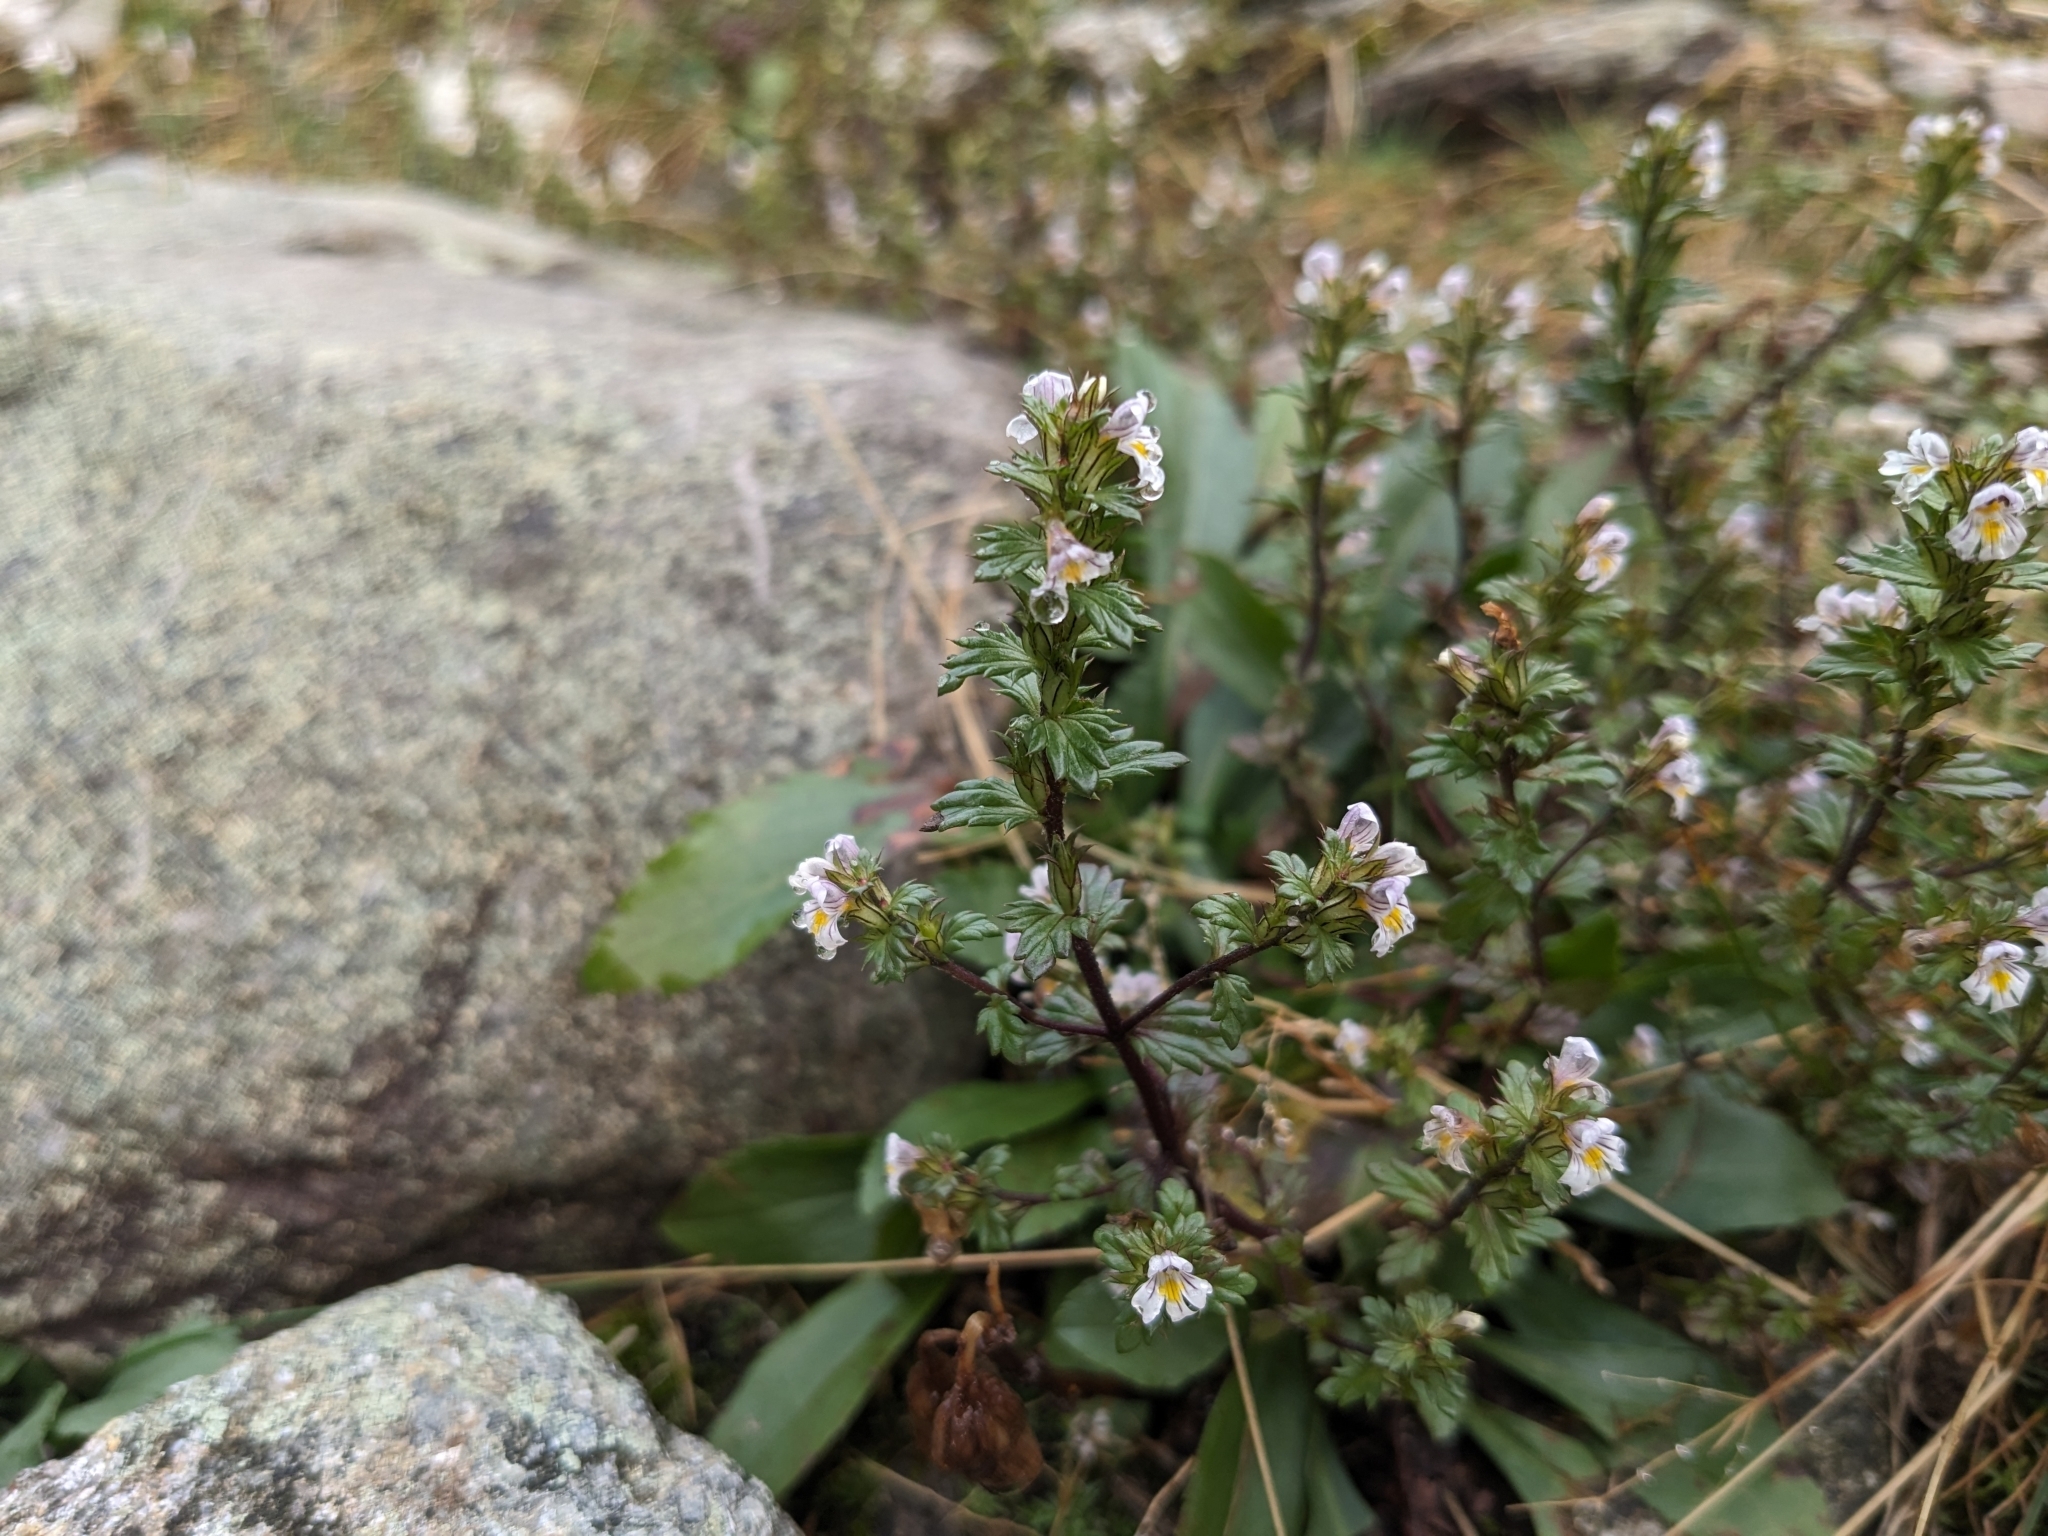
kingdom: Plantae
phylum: Tracheophyta
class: Magnoliopsida
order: Lamiales
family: Orobanchaceae
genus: Euphrasia
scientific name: Euphrasia nemorosa
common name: Common eyebright
